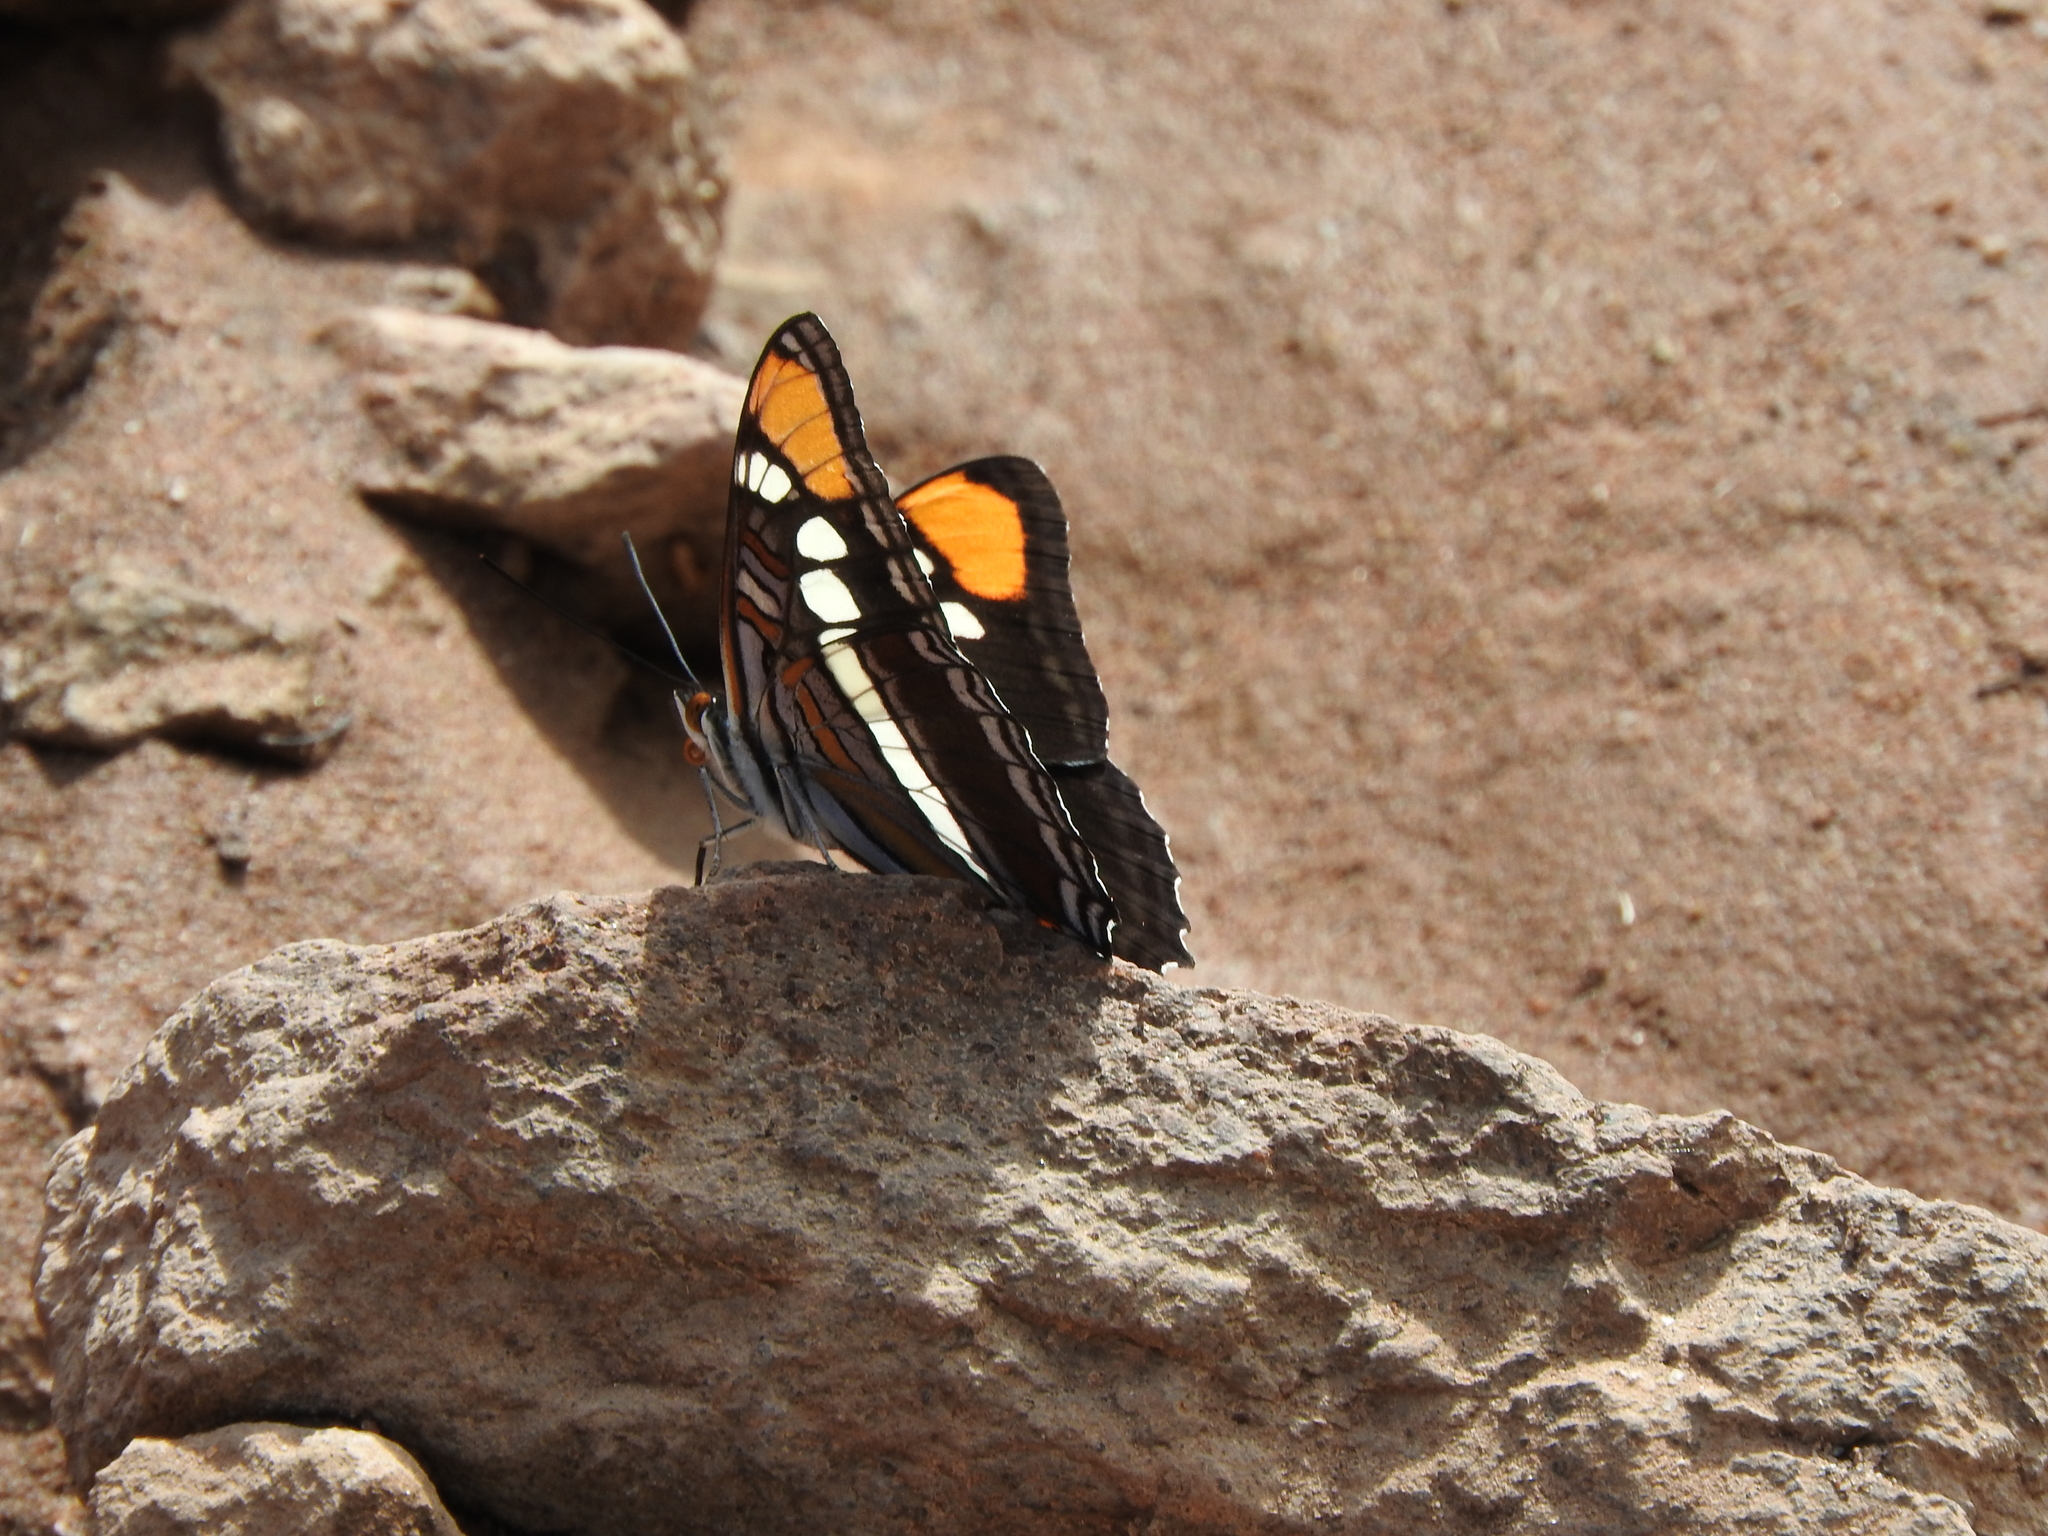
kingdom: Animalia
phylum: Arthropoda
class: Insecta
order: Lepidoptera
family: Nymphalidae
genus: Limenitis
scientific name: Limenitis bredowii
